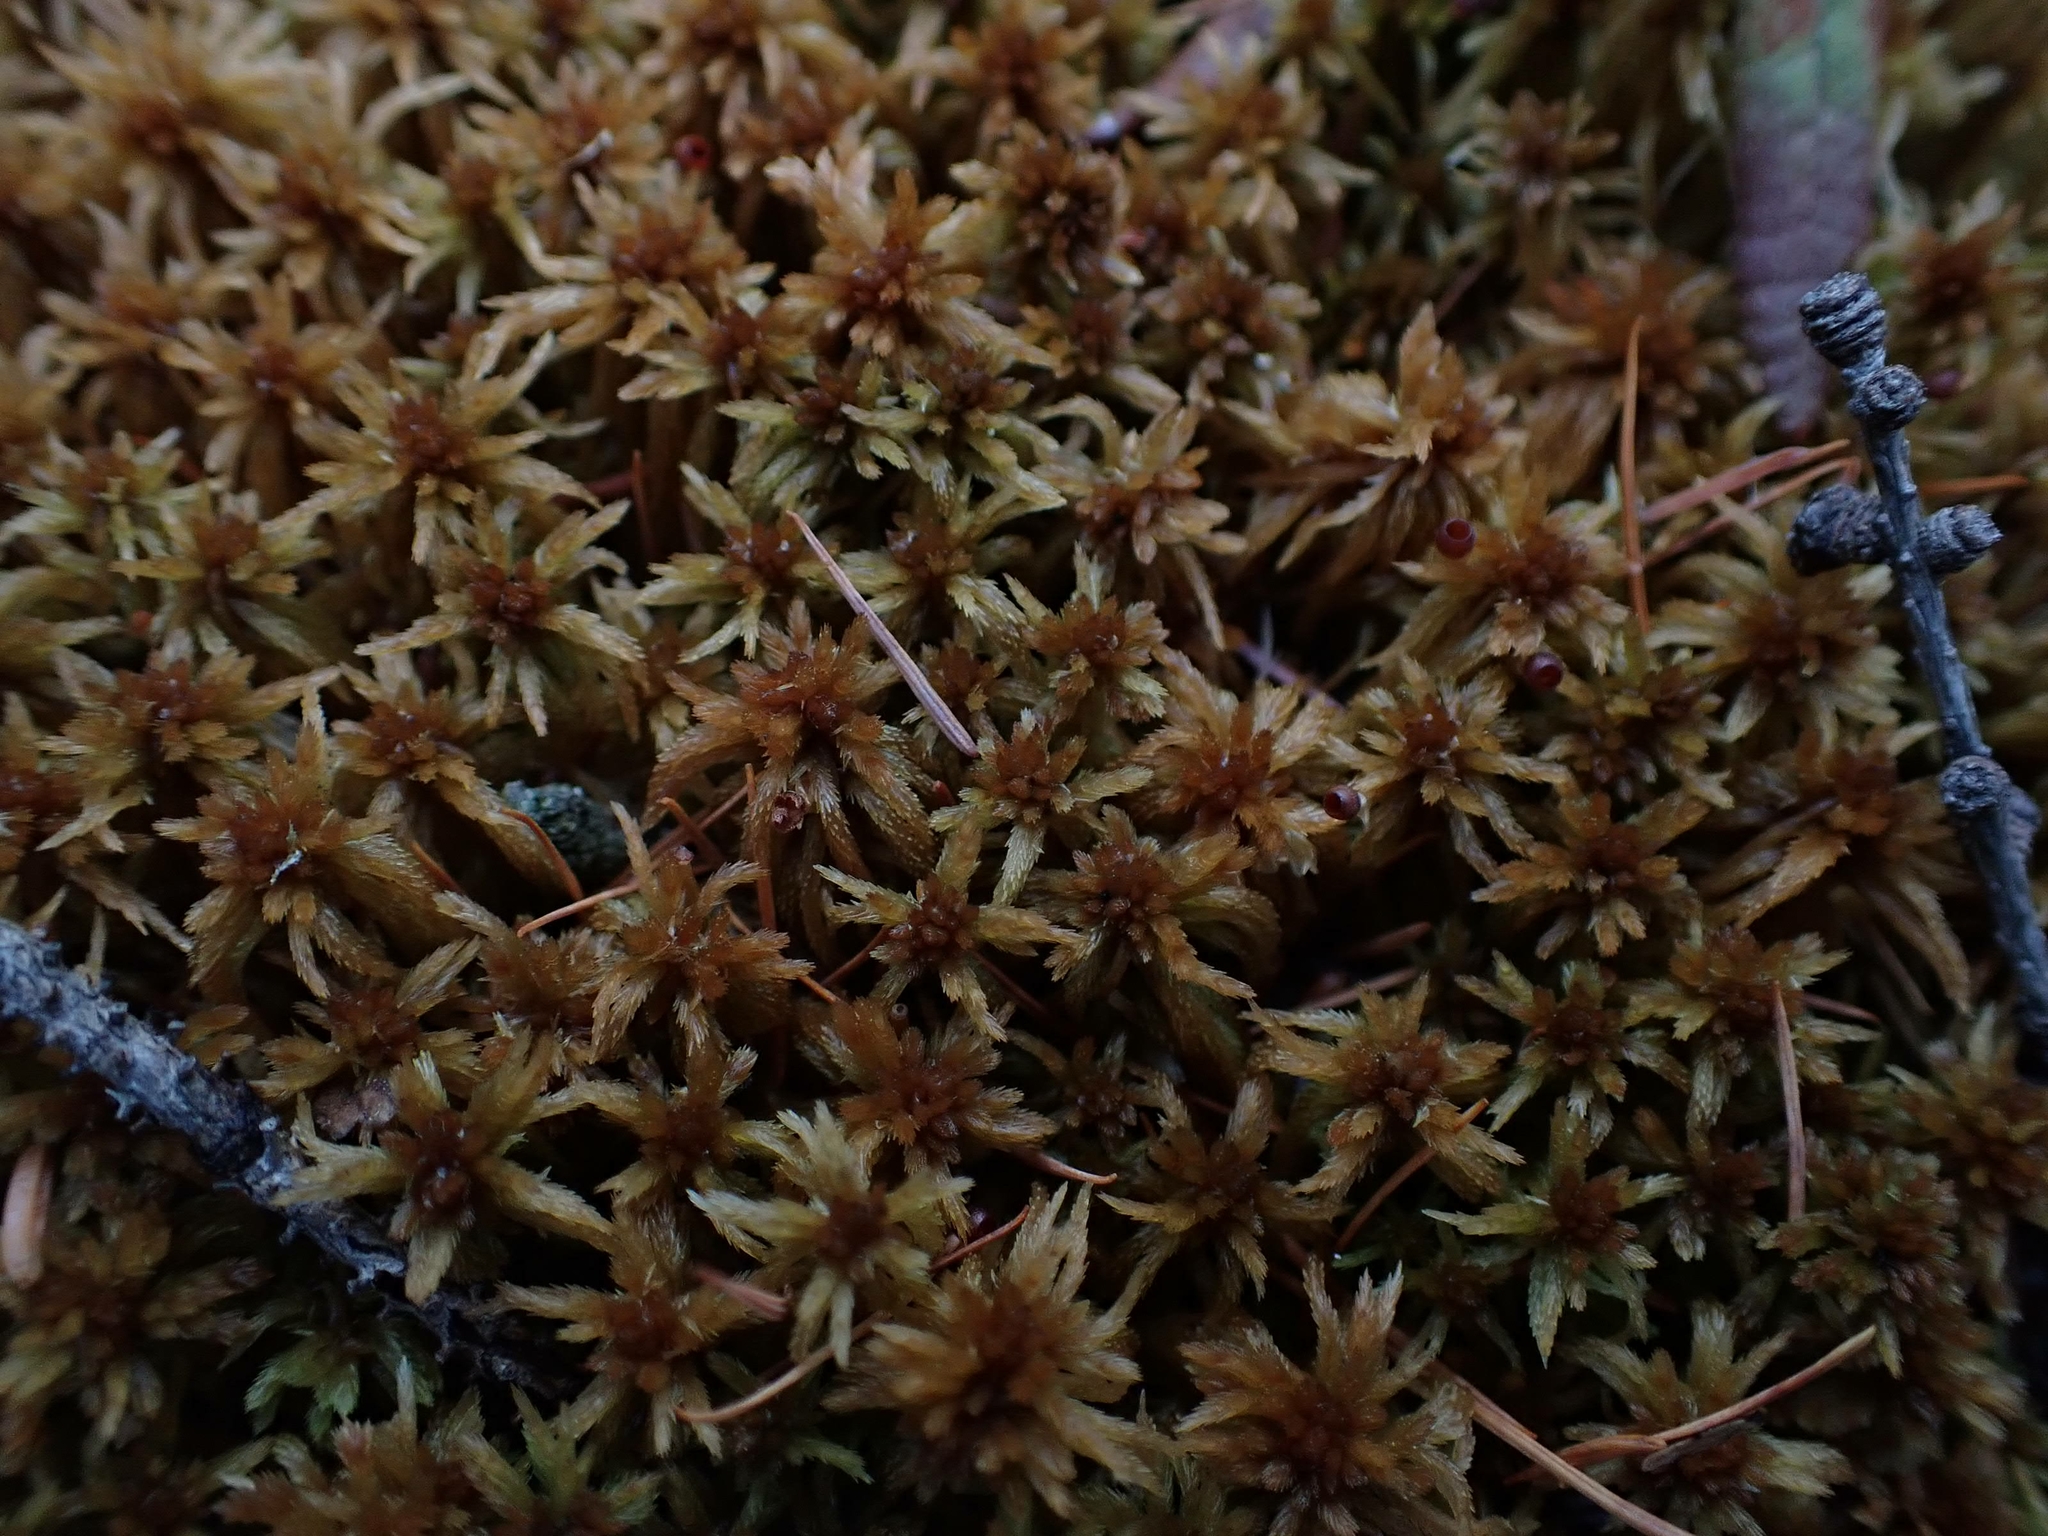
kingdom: Plantae
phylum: Bryophyta
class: Sphagnopsida
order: Sphagnales
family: Sphagnaceae
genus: Sphagnum
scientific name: Sphagnum fuscum
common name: Brown peat moss
